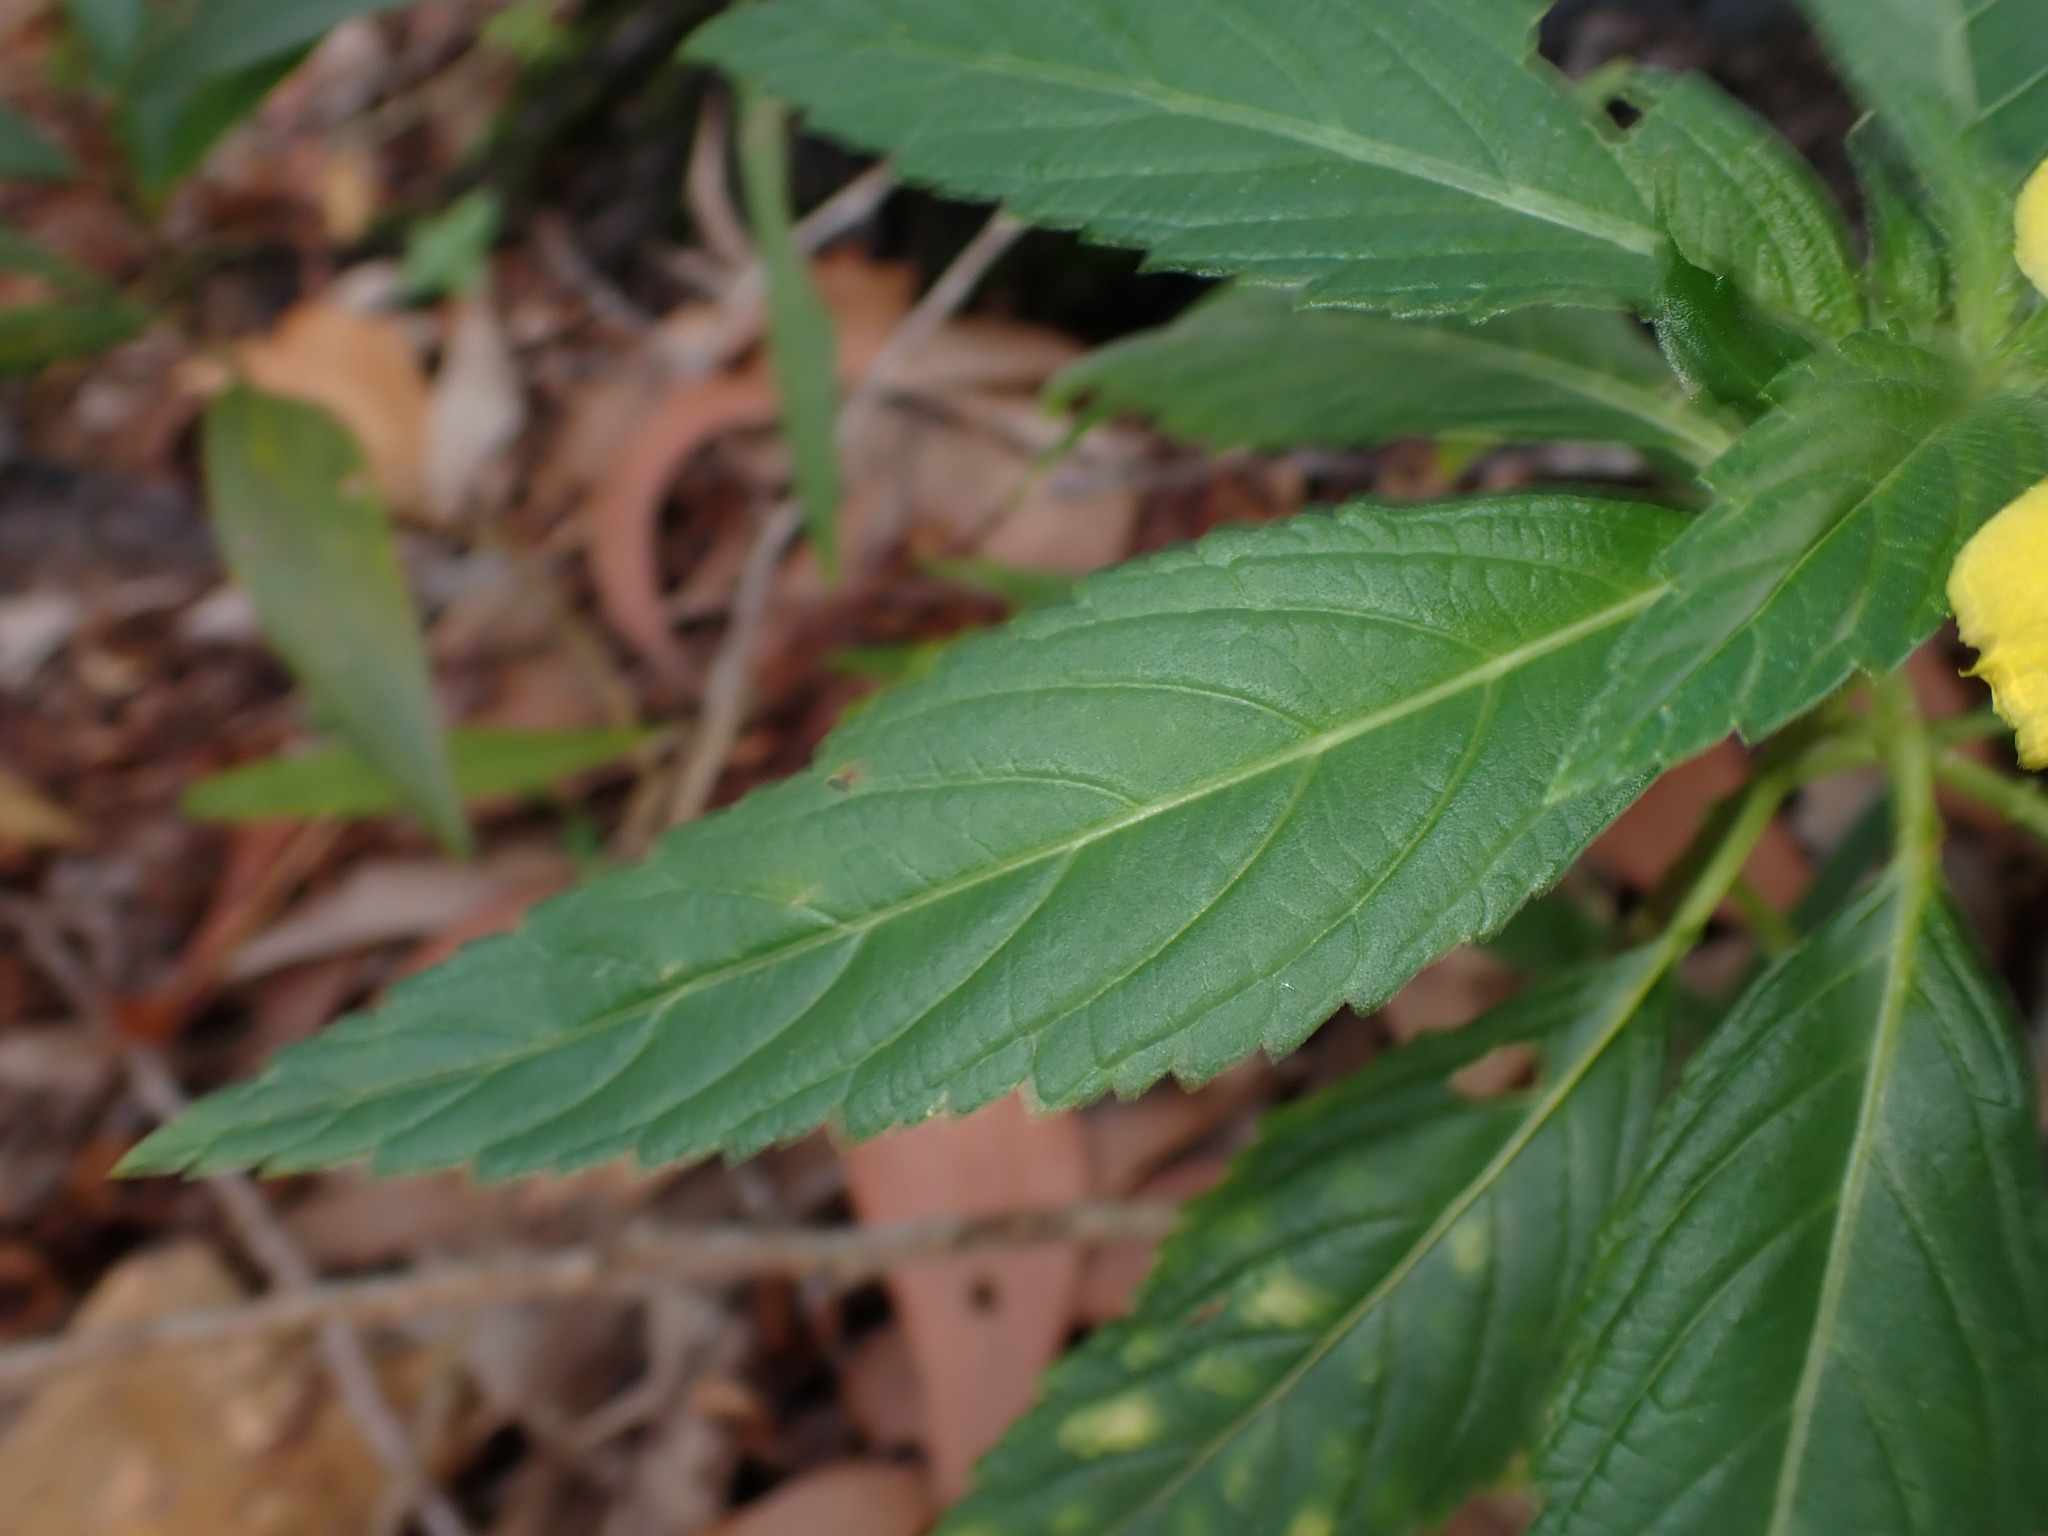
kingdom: Plantae
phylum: Tracheophyta
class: Magnoliopsida
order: Malpighiales
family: Turneraceae
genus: Turnera
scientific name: Turnera ulmifolia
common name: Ramgoat dashalong
